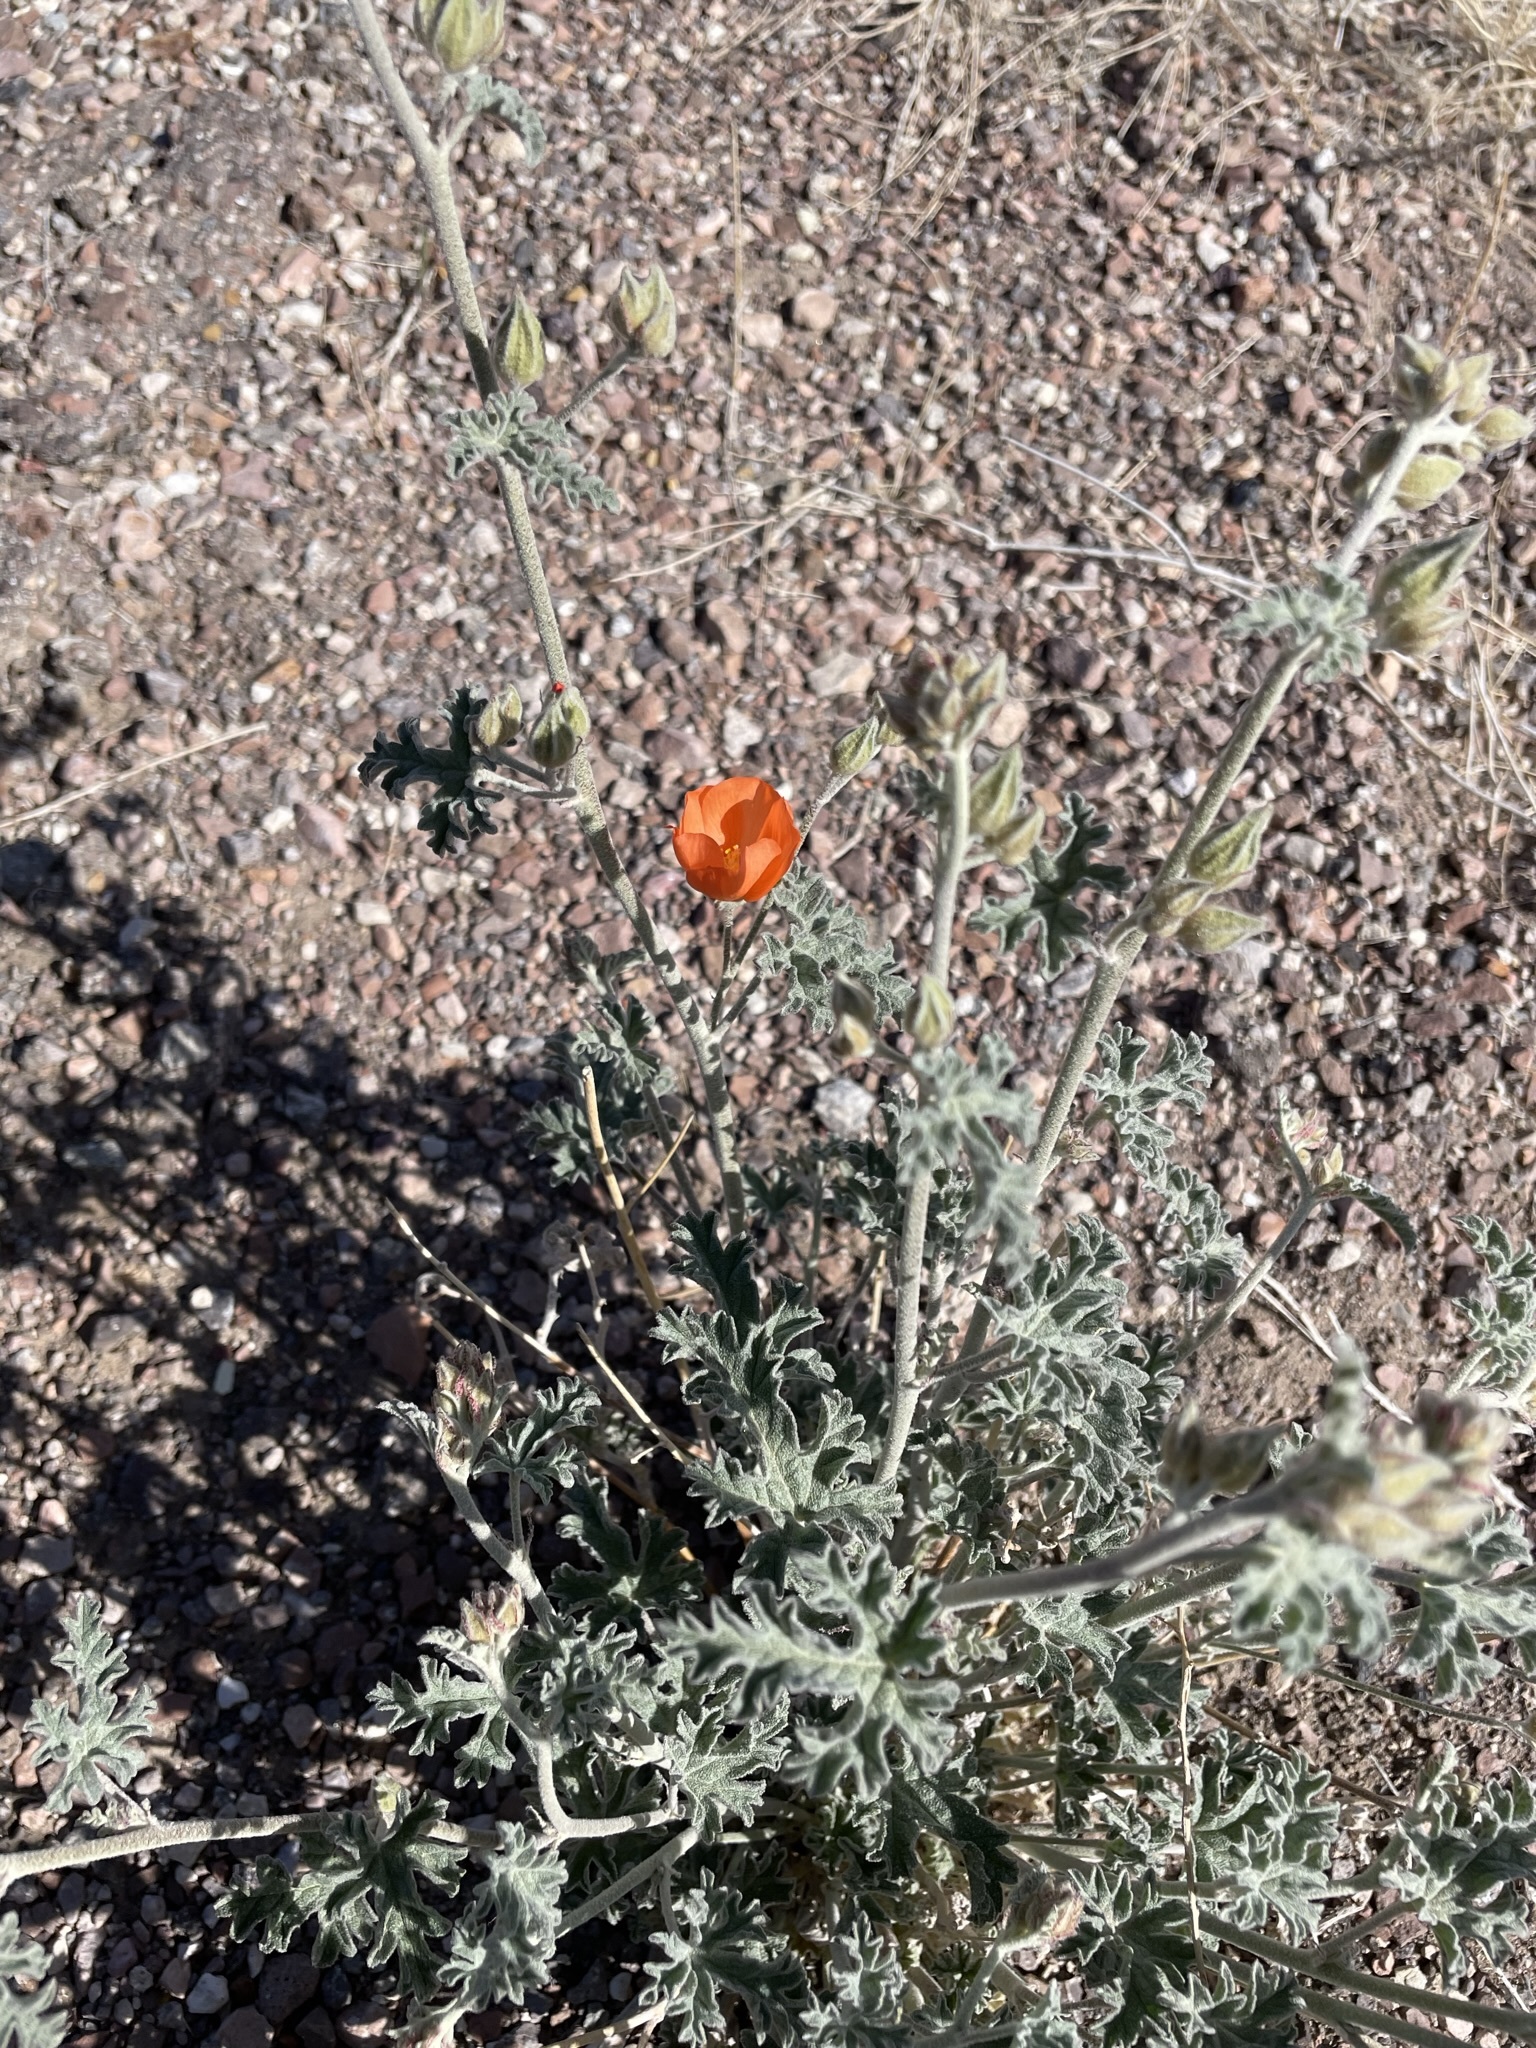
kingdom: Plantae
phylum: Tracheophyta
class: Magnoliopsida
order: Malvales
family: Malvaceae
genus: Sphaeralcea
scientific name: Sphaeralcea grossulariifolia
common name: Current-leaf globe-mallow
